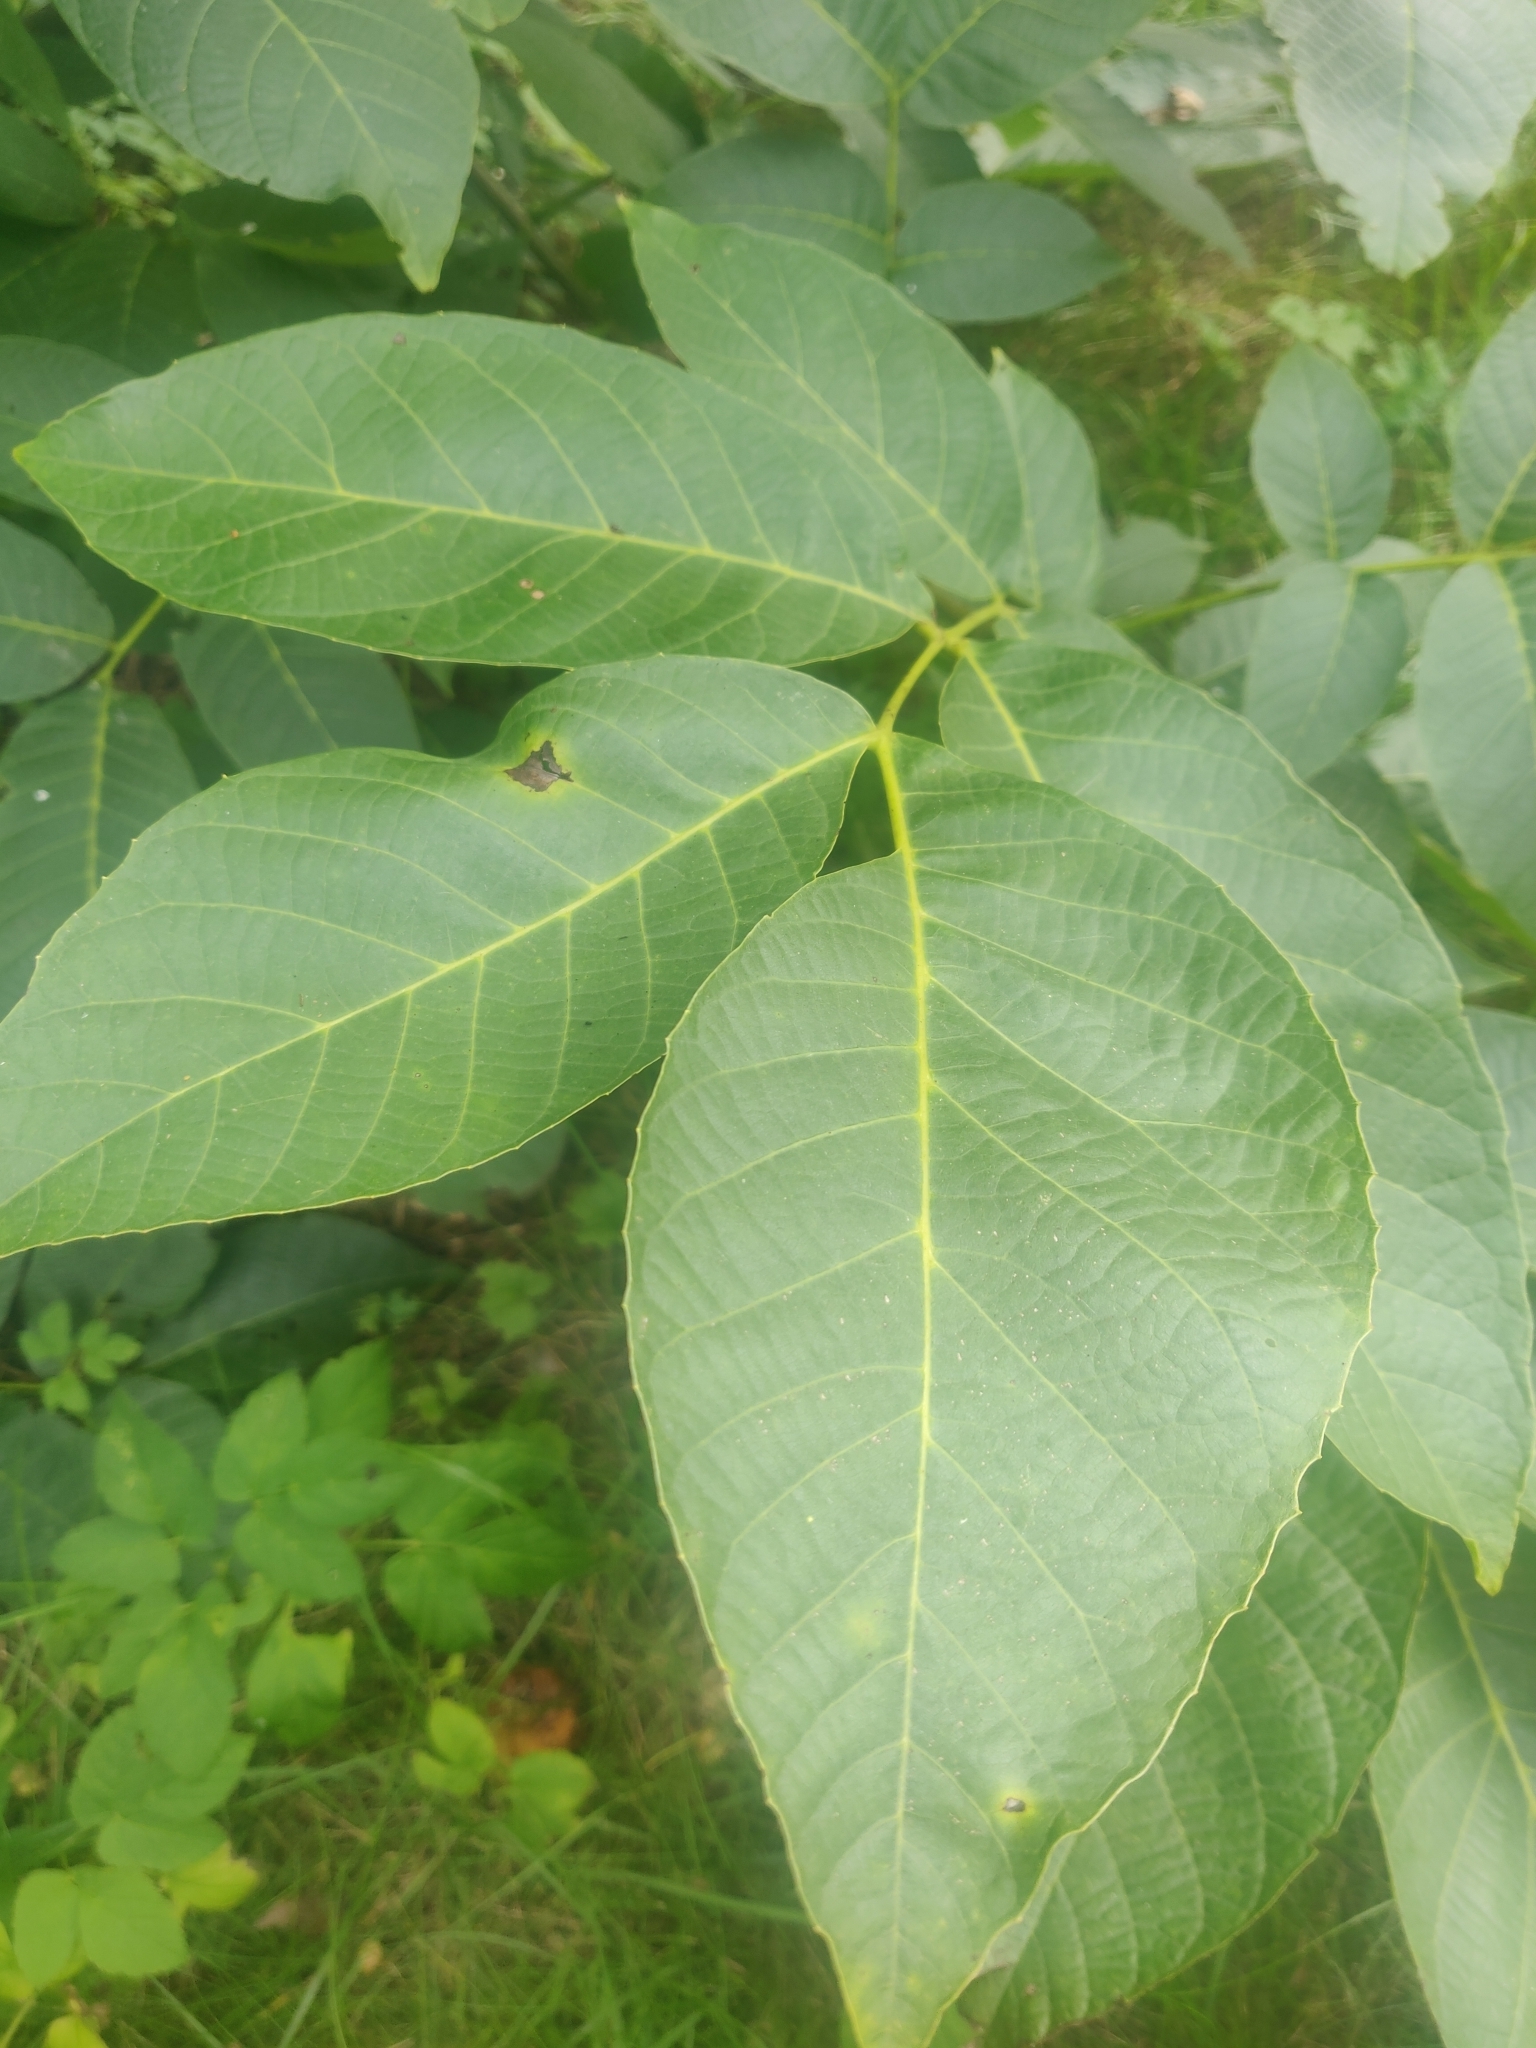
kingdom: Plantae
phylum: Tracheophyta
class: Magnoliopsida
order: Fagales
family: Juglandaceae
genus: Juglans
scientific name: Juglans regia
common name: Walnut
